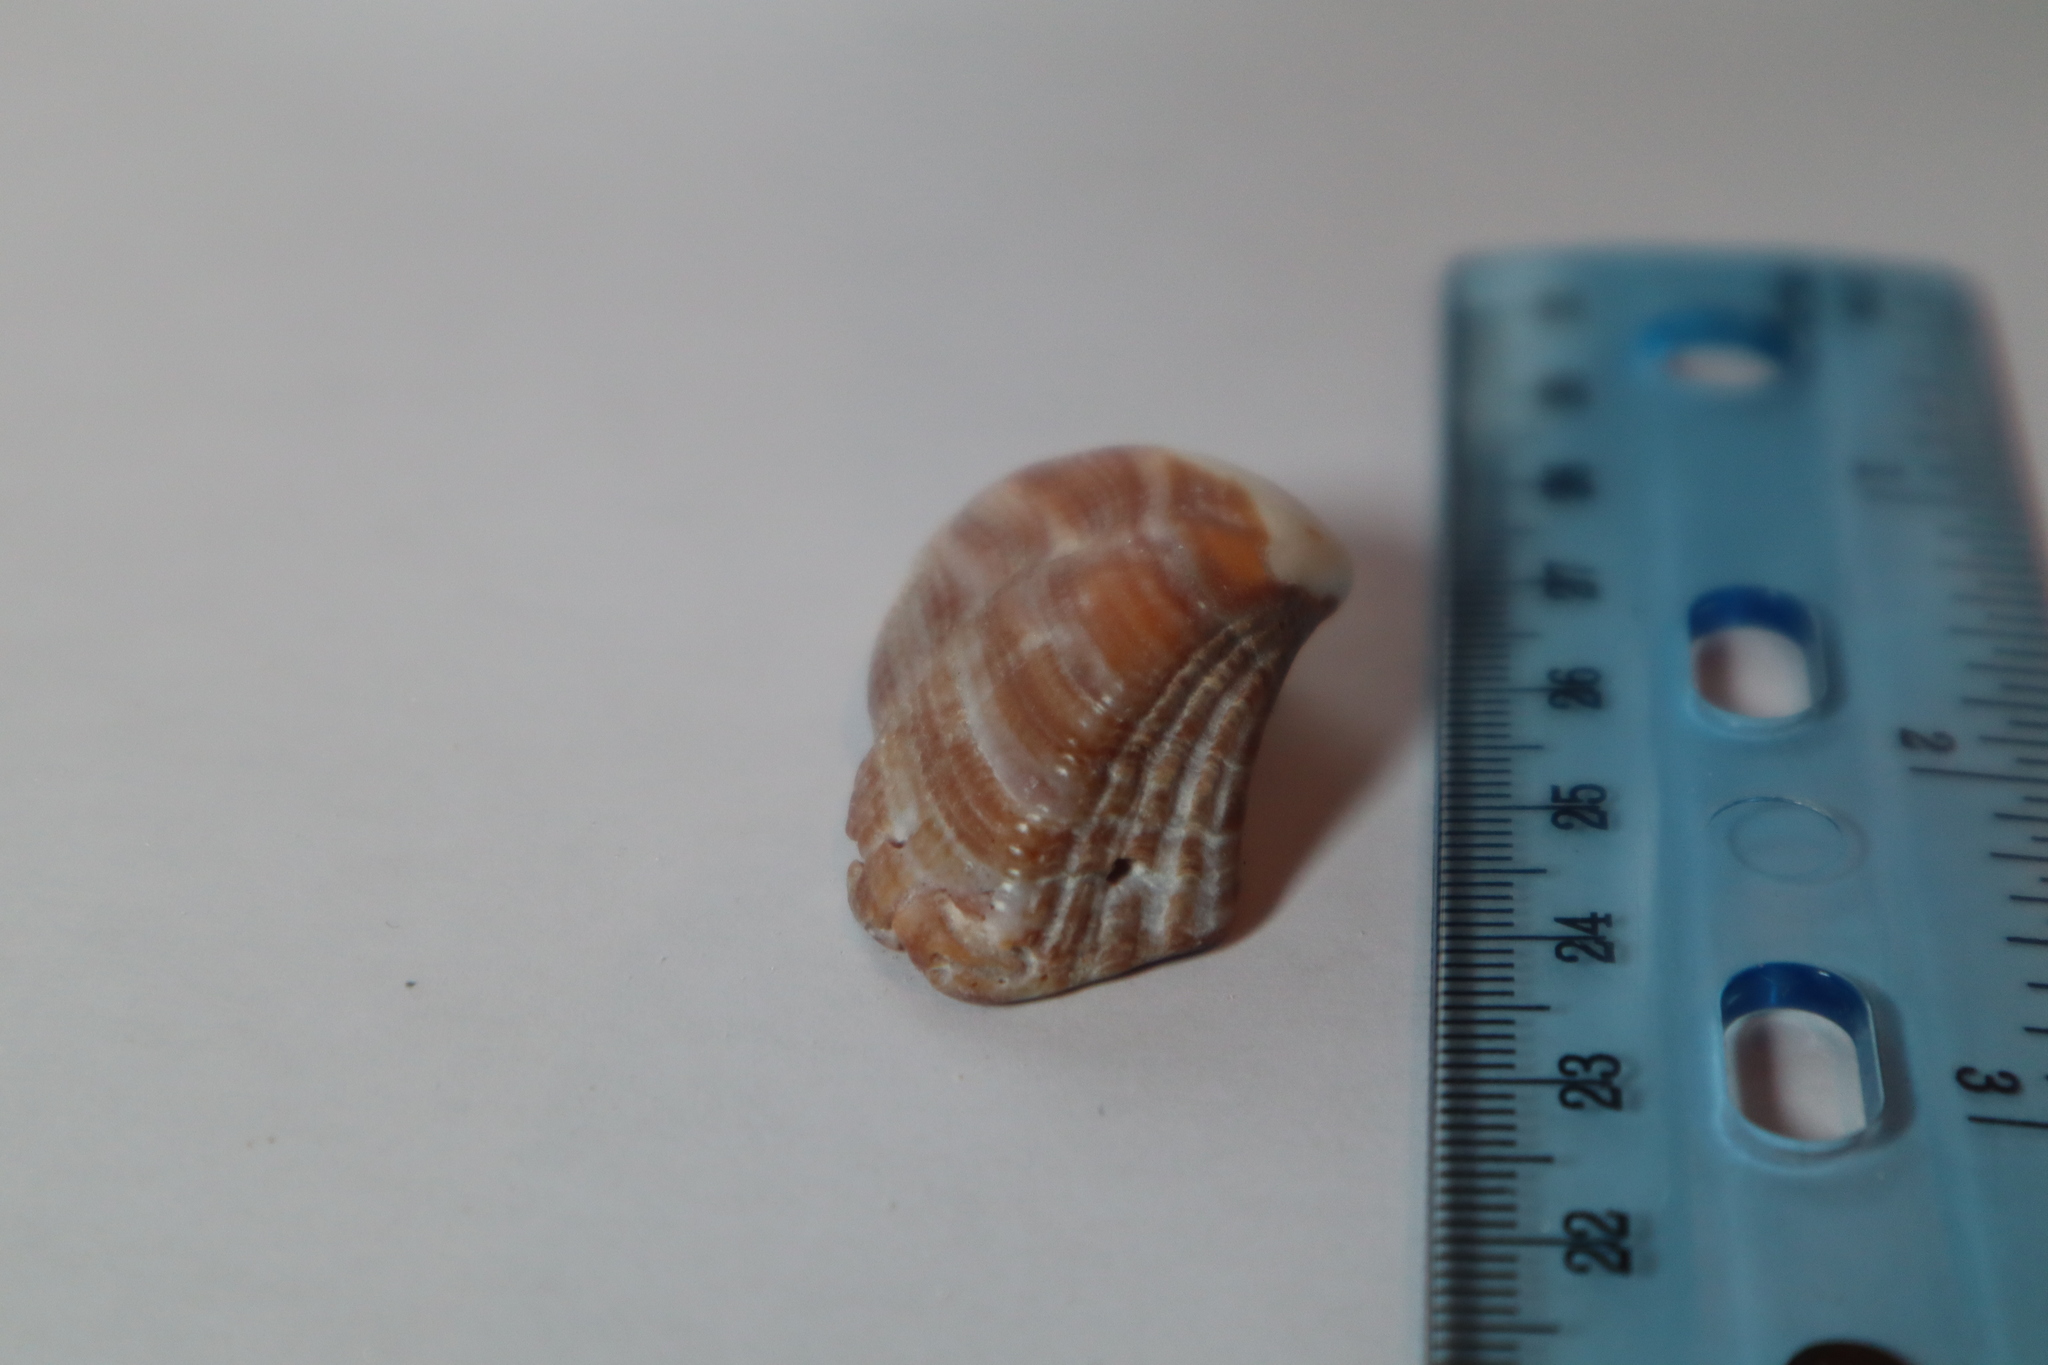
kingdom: Animalia
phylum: Mollusca
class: Bivalvia
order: Arcida
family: Arcidae
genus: Lamarcka
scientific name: Lamarcka imbricata
